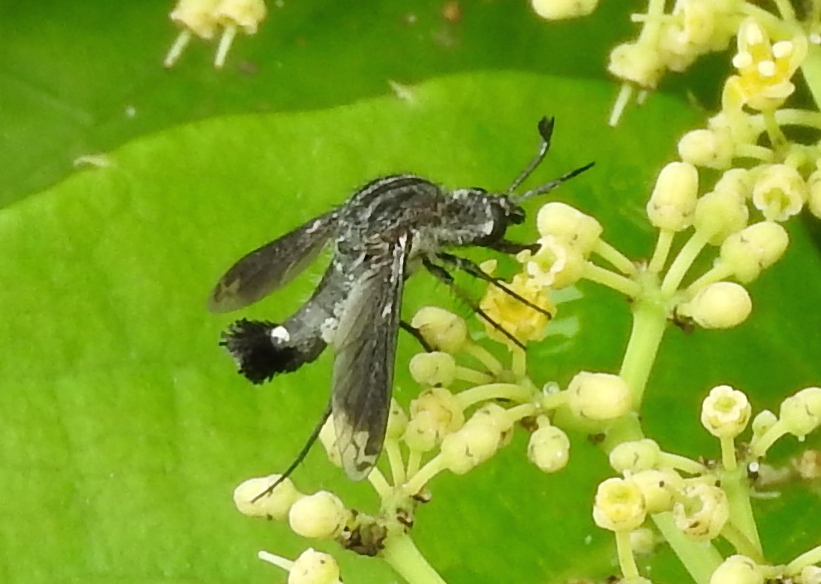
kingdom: Animalia
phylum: Arthropoda
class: Insecta
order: Diptera
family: Bombyliidae
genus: Lepidophora
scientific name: Lepidophora vetusta
